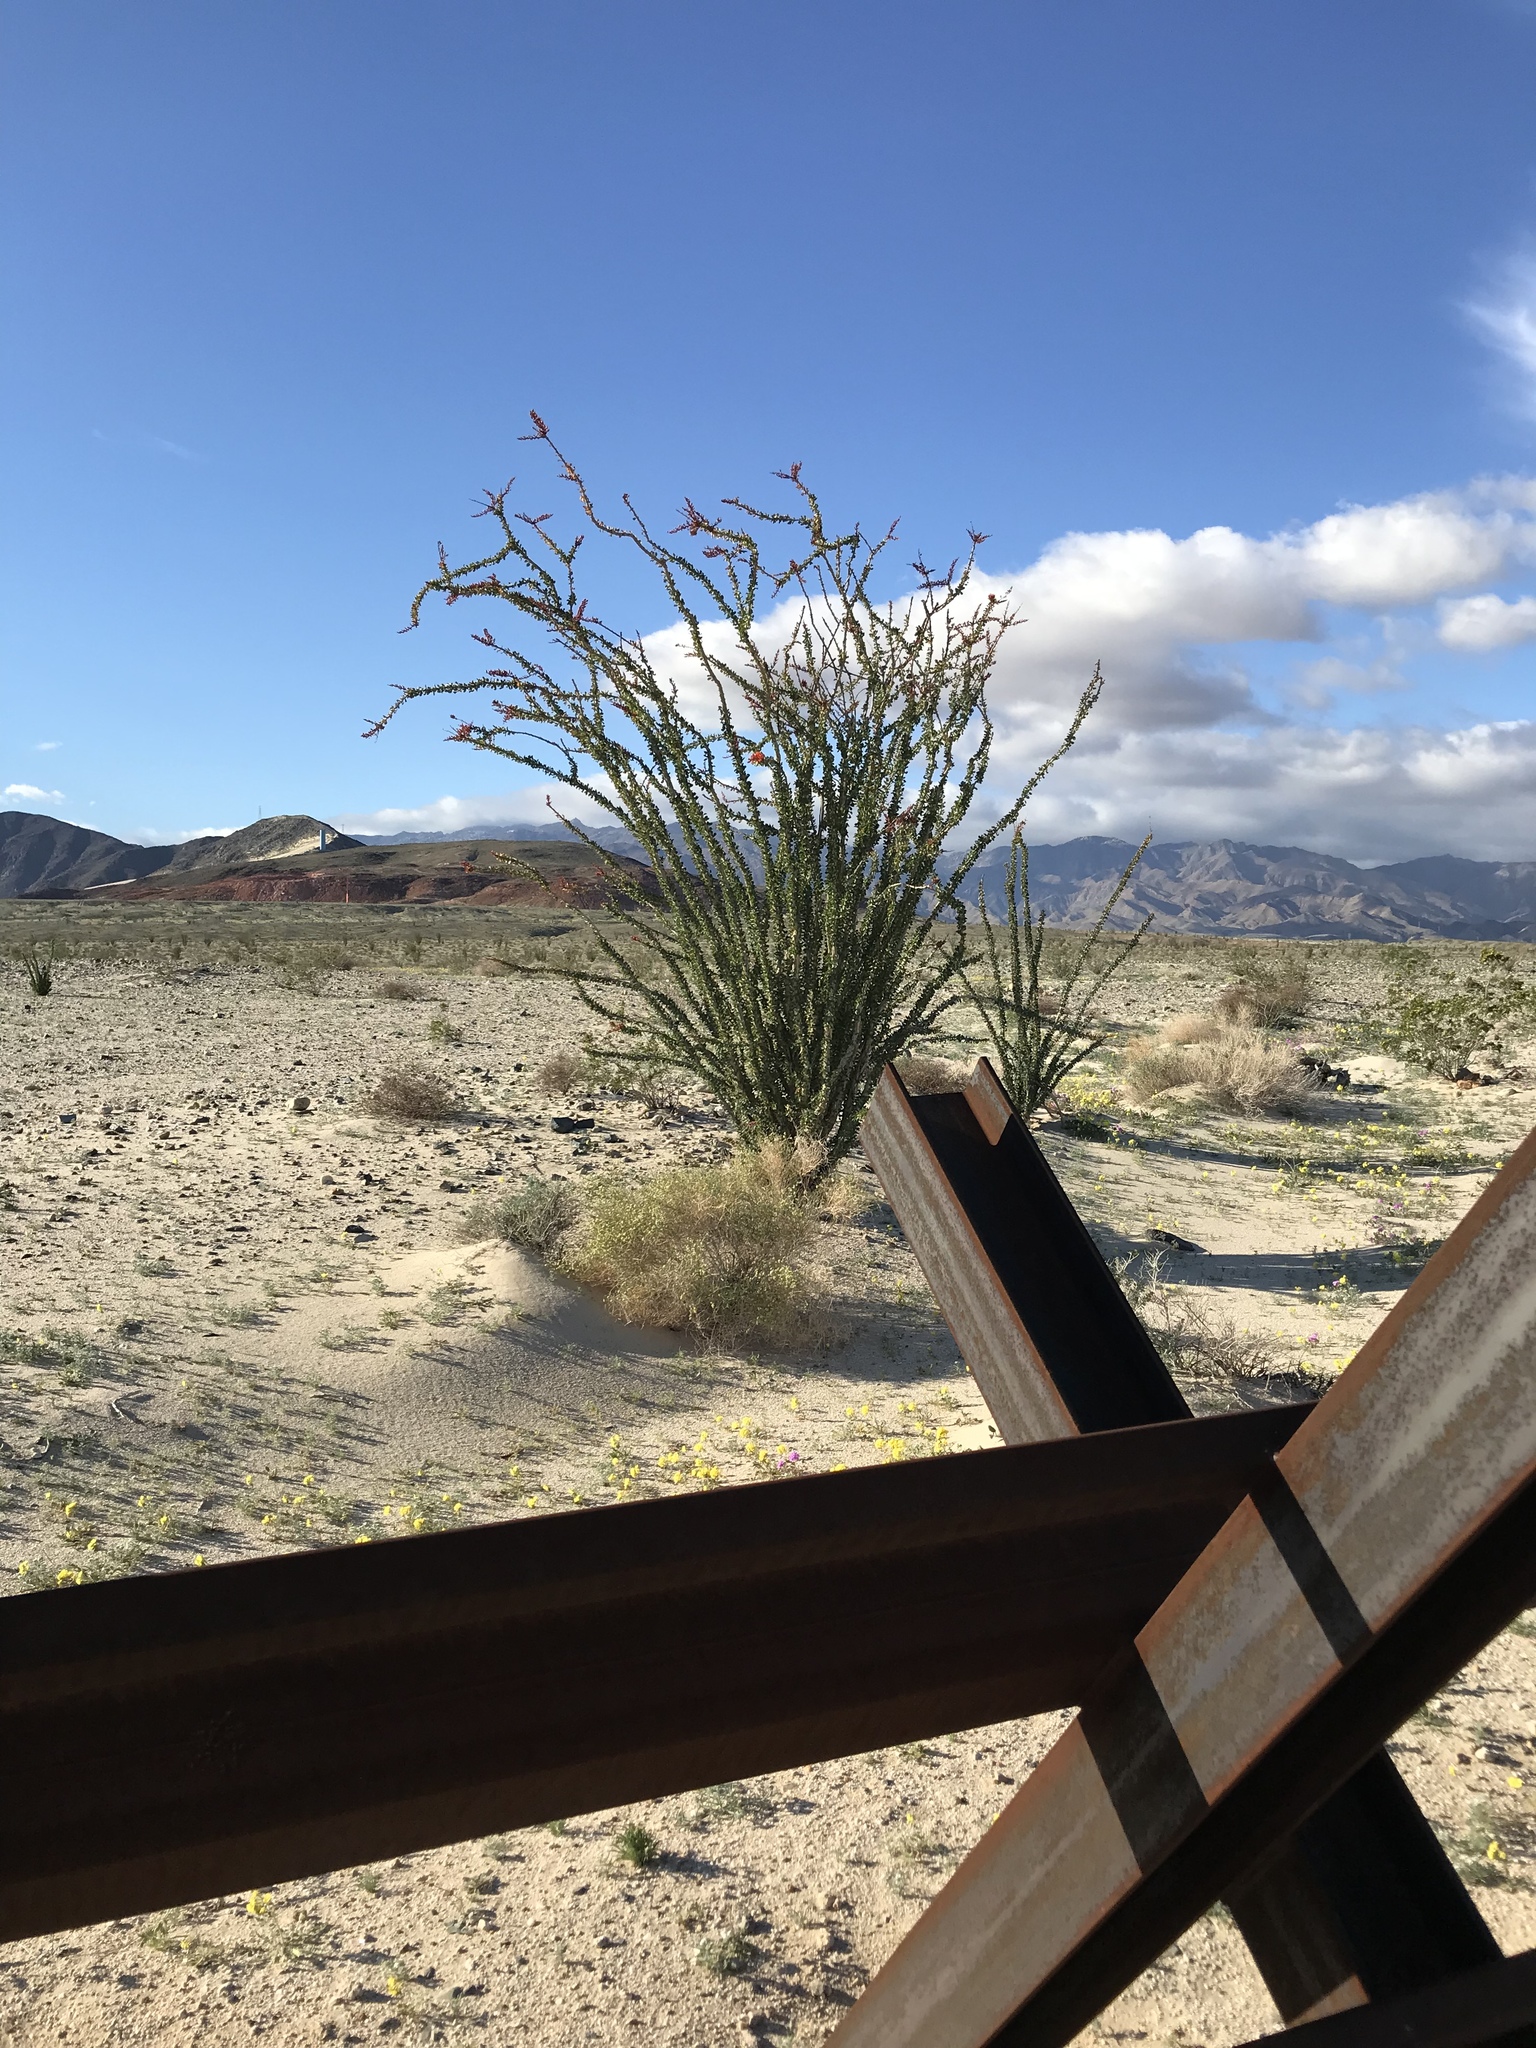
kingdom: Plantae
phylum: Tracheophyta
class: Magnoliopsida
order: Ericales
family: Fouquieriaceae
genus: Fouquieria
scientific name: Fouquieria splendens
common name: Vine-cactus
